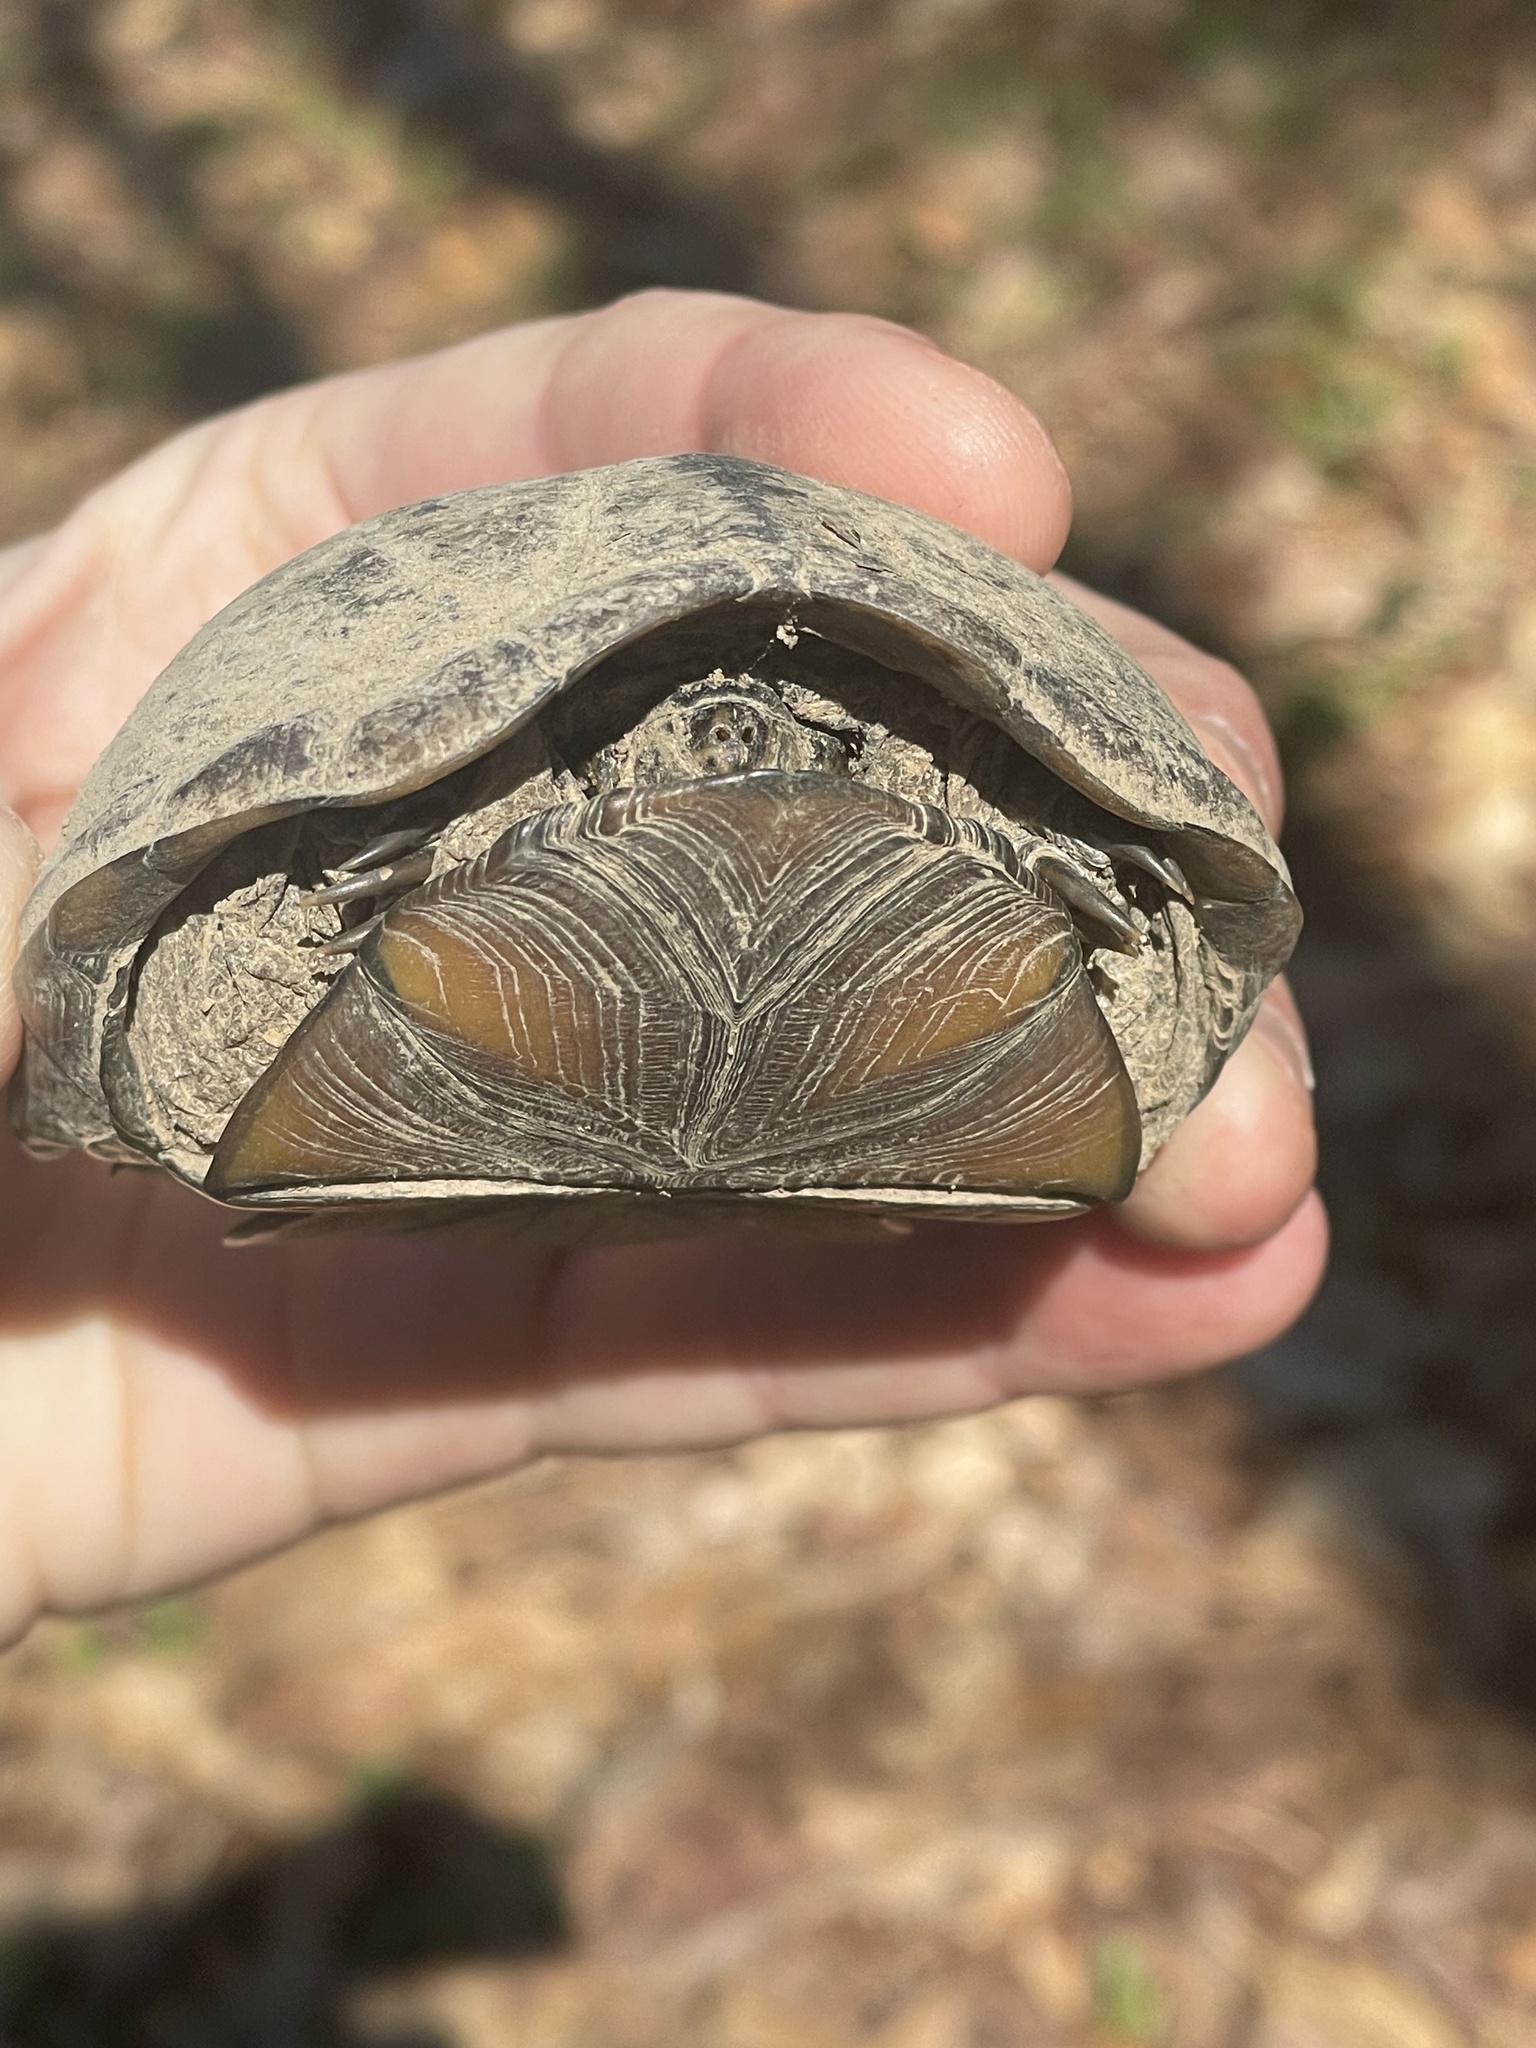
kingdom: Animalia
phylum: Chordata
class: Testudines
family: Kinosternidae
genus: Kinosternon
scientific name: Kinosternon subrubrum
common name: Eastern mud turtle
